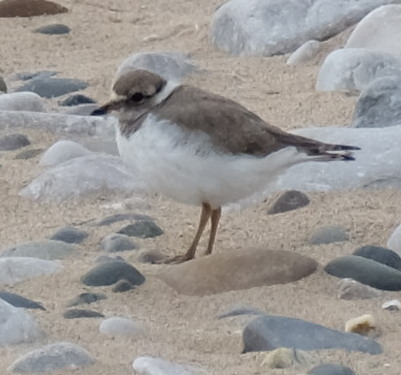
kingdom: Animalia
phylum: Chordata
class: Aves
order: Charadriiformes
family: Charadriidae
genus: Charadrius
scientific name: Charadrius hiaticula
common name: Common ringed plover
